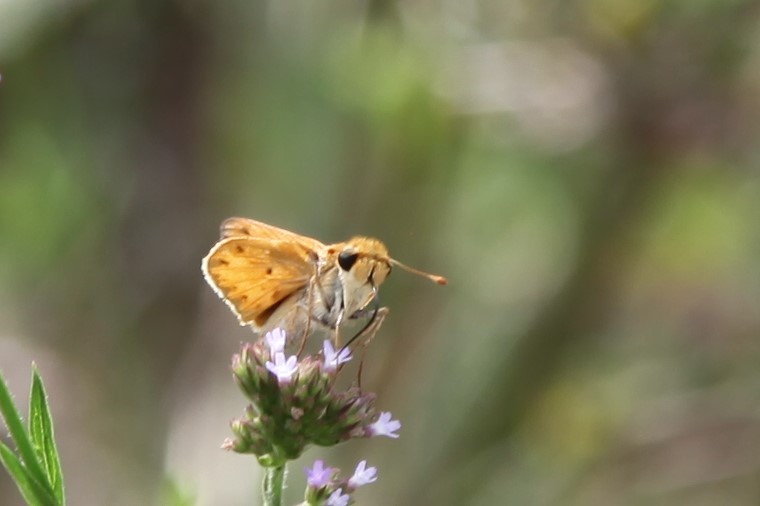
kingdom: Animalia
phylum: Arthropoda
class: Insecta
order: Lepidoptera
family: Hesperiidae
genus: Hylephila
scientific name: Hylephila phyleus
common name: Fiery skipper
